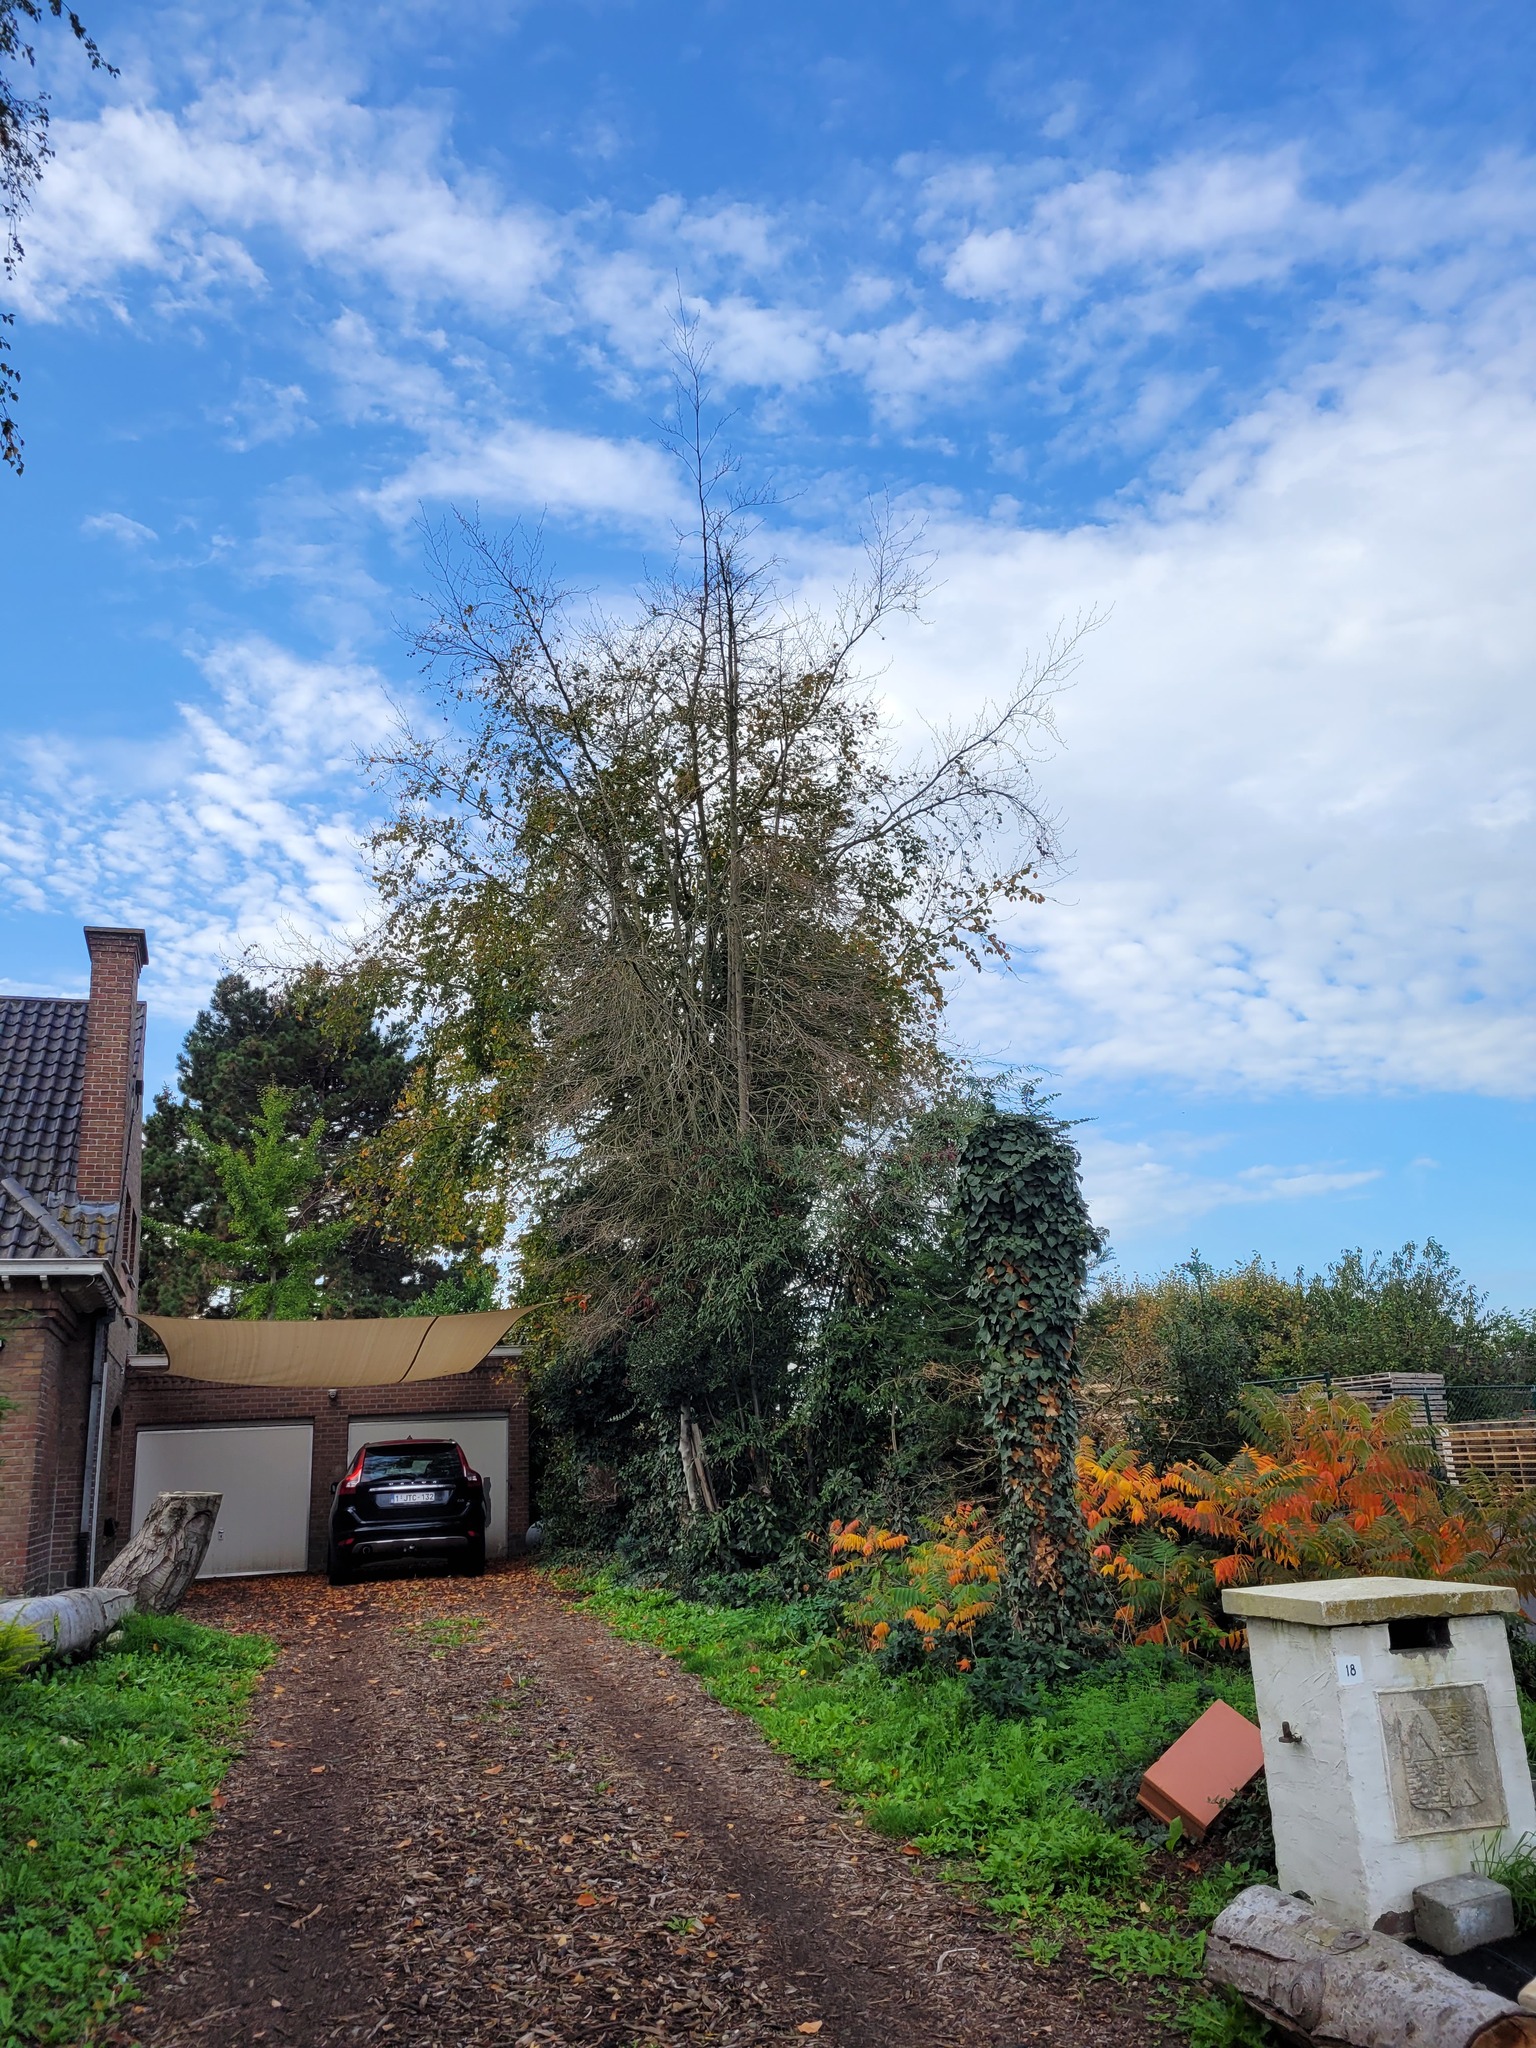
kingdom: Animalia
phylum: Arthropoda
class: Insecta
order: Hymenoptera
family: Vespidae
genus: Vespa
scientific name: Vespa velutina
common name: Asian hornet
